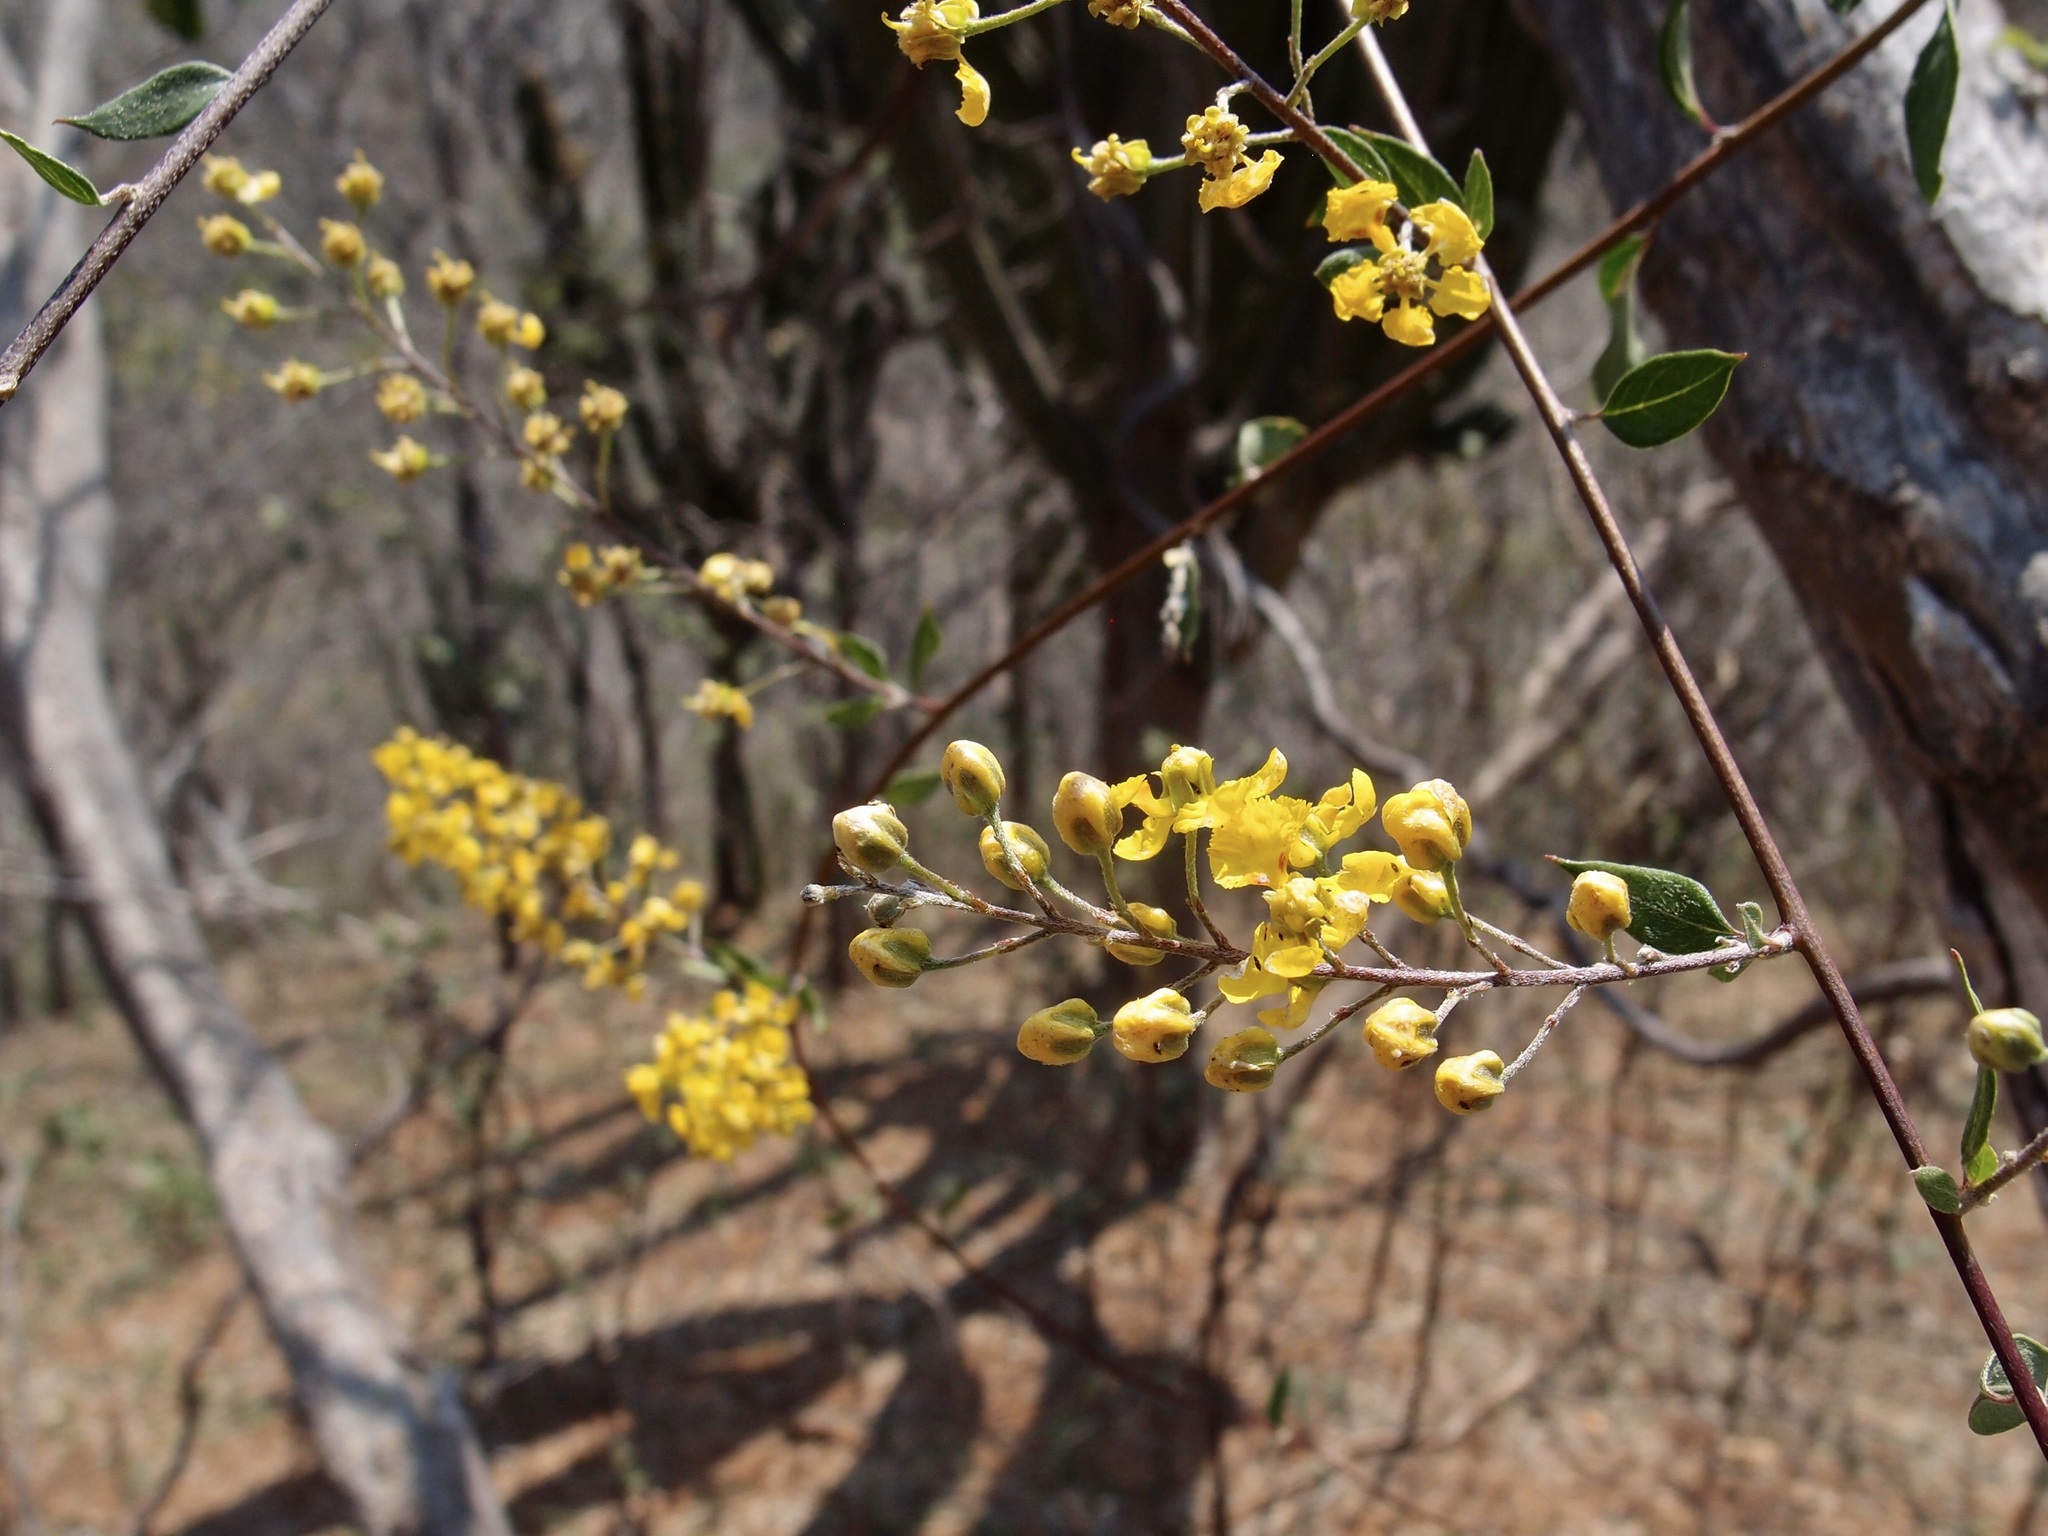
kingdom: Plantae
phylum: Tracheophyta
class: Magnoliopsida
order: Malpighiales
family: Malpighiaceae
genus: Echinopterys
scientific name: Echinopterys eglandulosa
